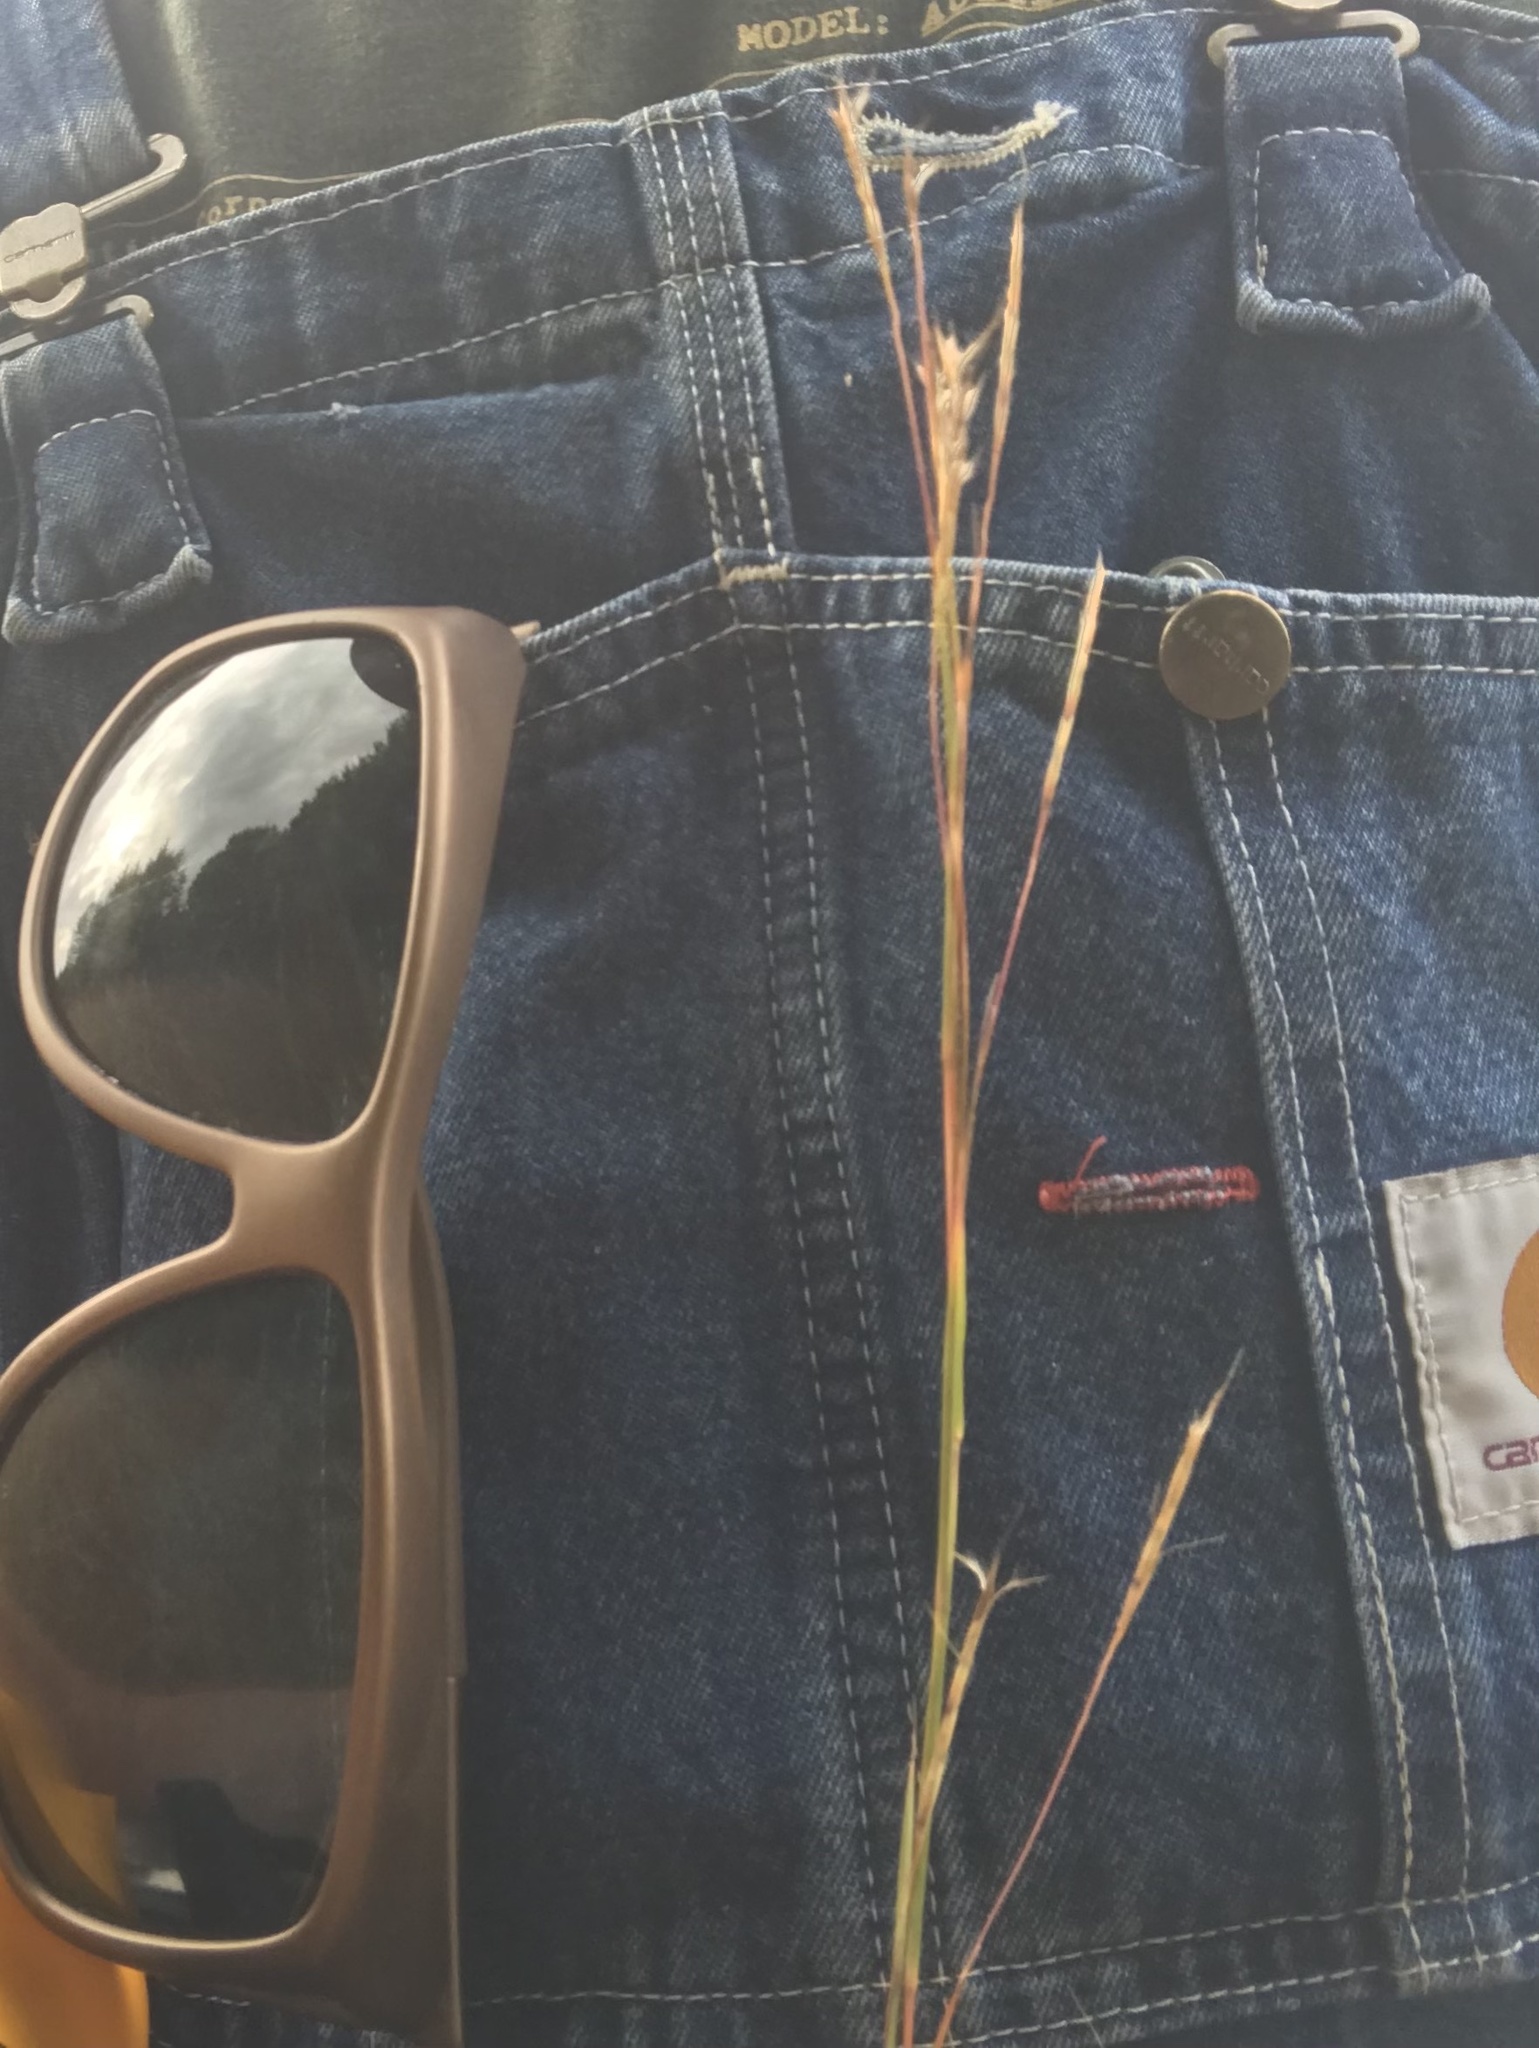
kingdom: Plantae
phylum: Tracheophyta
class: Liliopsida
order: Poales
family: Poaceae
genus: Schizachyrium
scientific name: Schizachyrium scoparium
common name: Little bluestem
